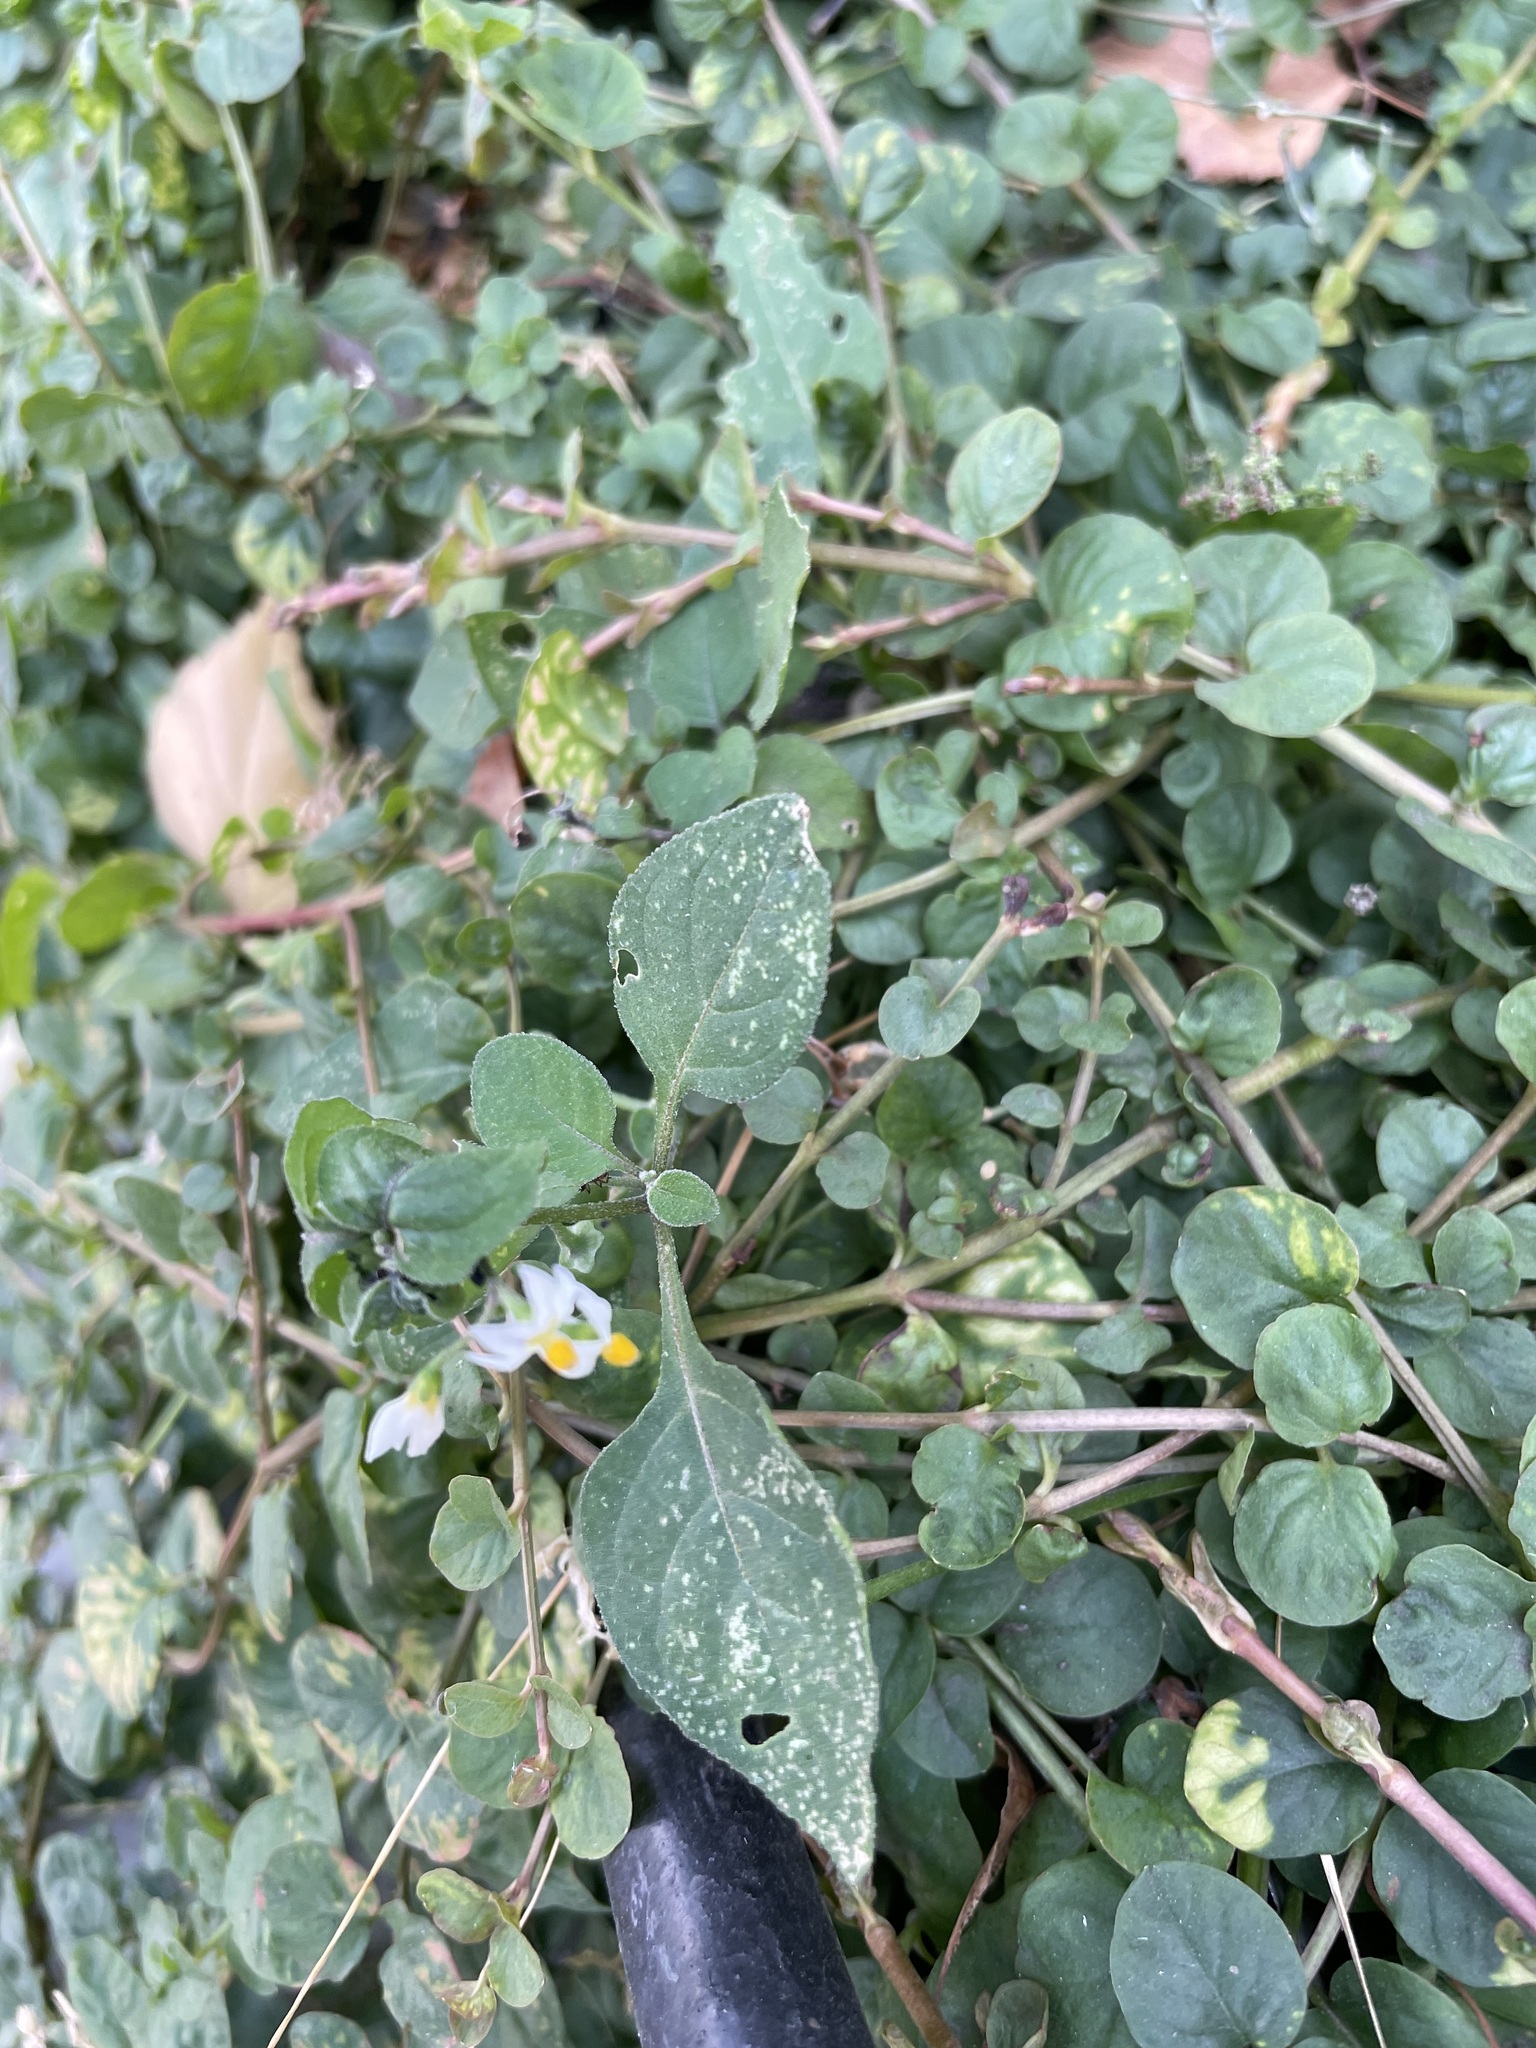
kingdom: Plantae
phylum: Tracheophyta
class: Magnoliopsida
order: Solanales
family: Solanaceae
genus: Solanum
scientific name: Solanum nigrum
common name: Black nightshade
